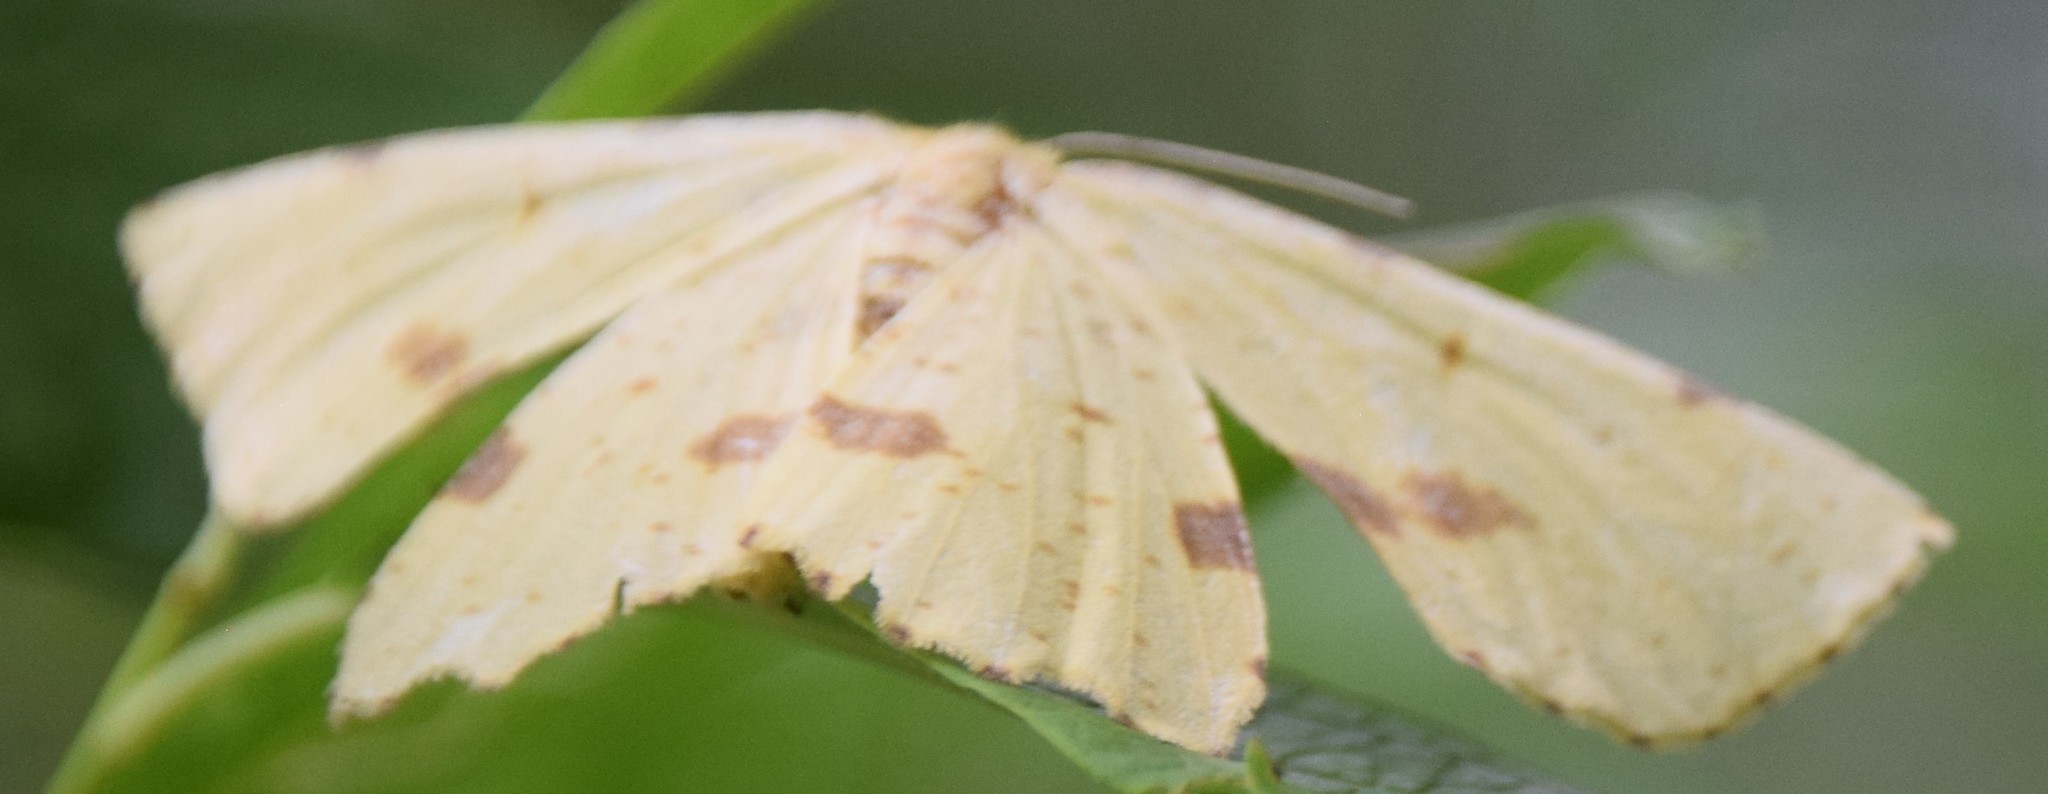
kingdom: Animalia
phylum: Arthropoda
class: Insecta
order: Lepidoptera
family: Geometridae
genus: Xanthotype
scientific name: Xanthotype
